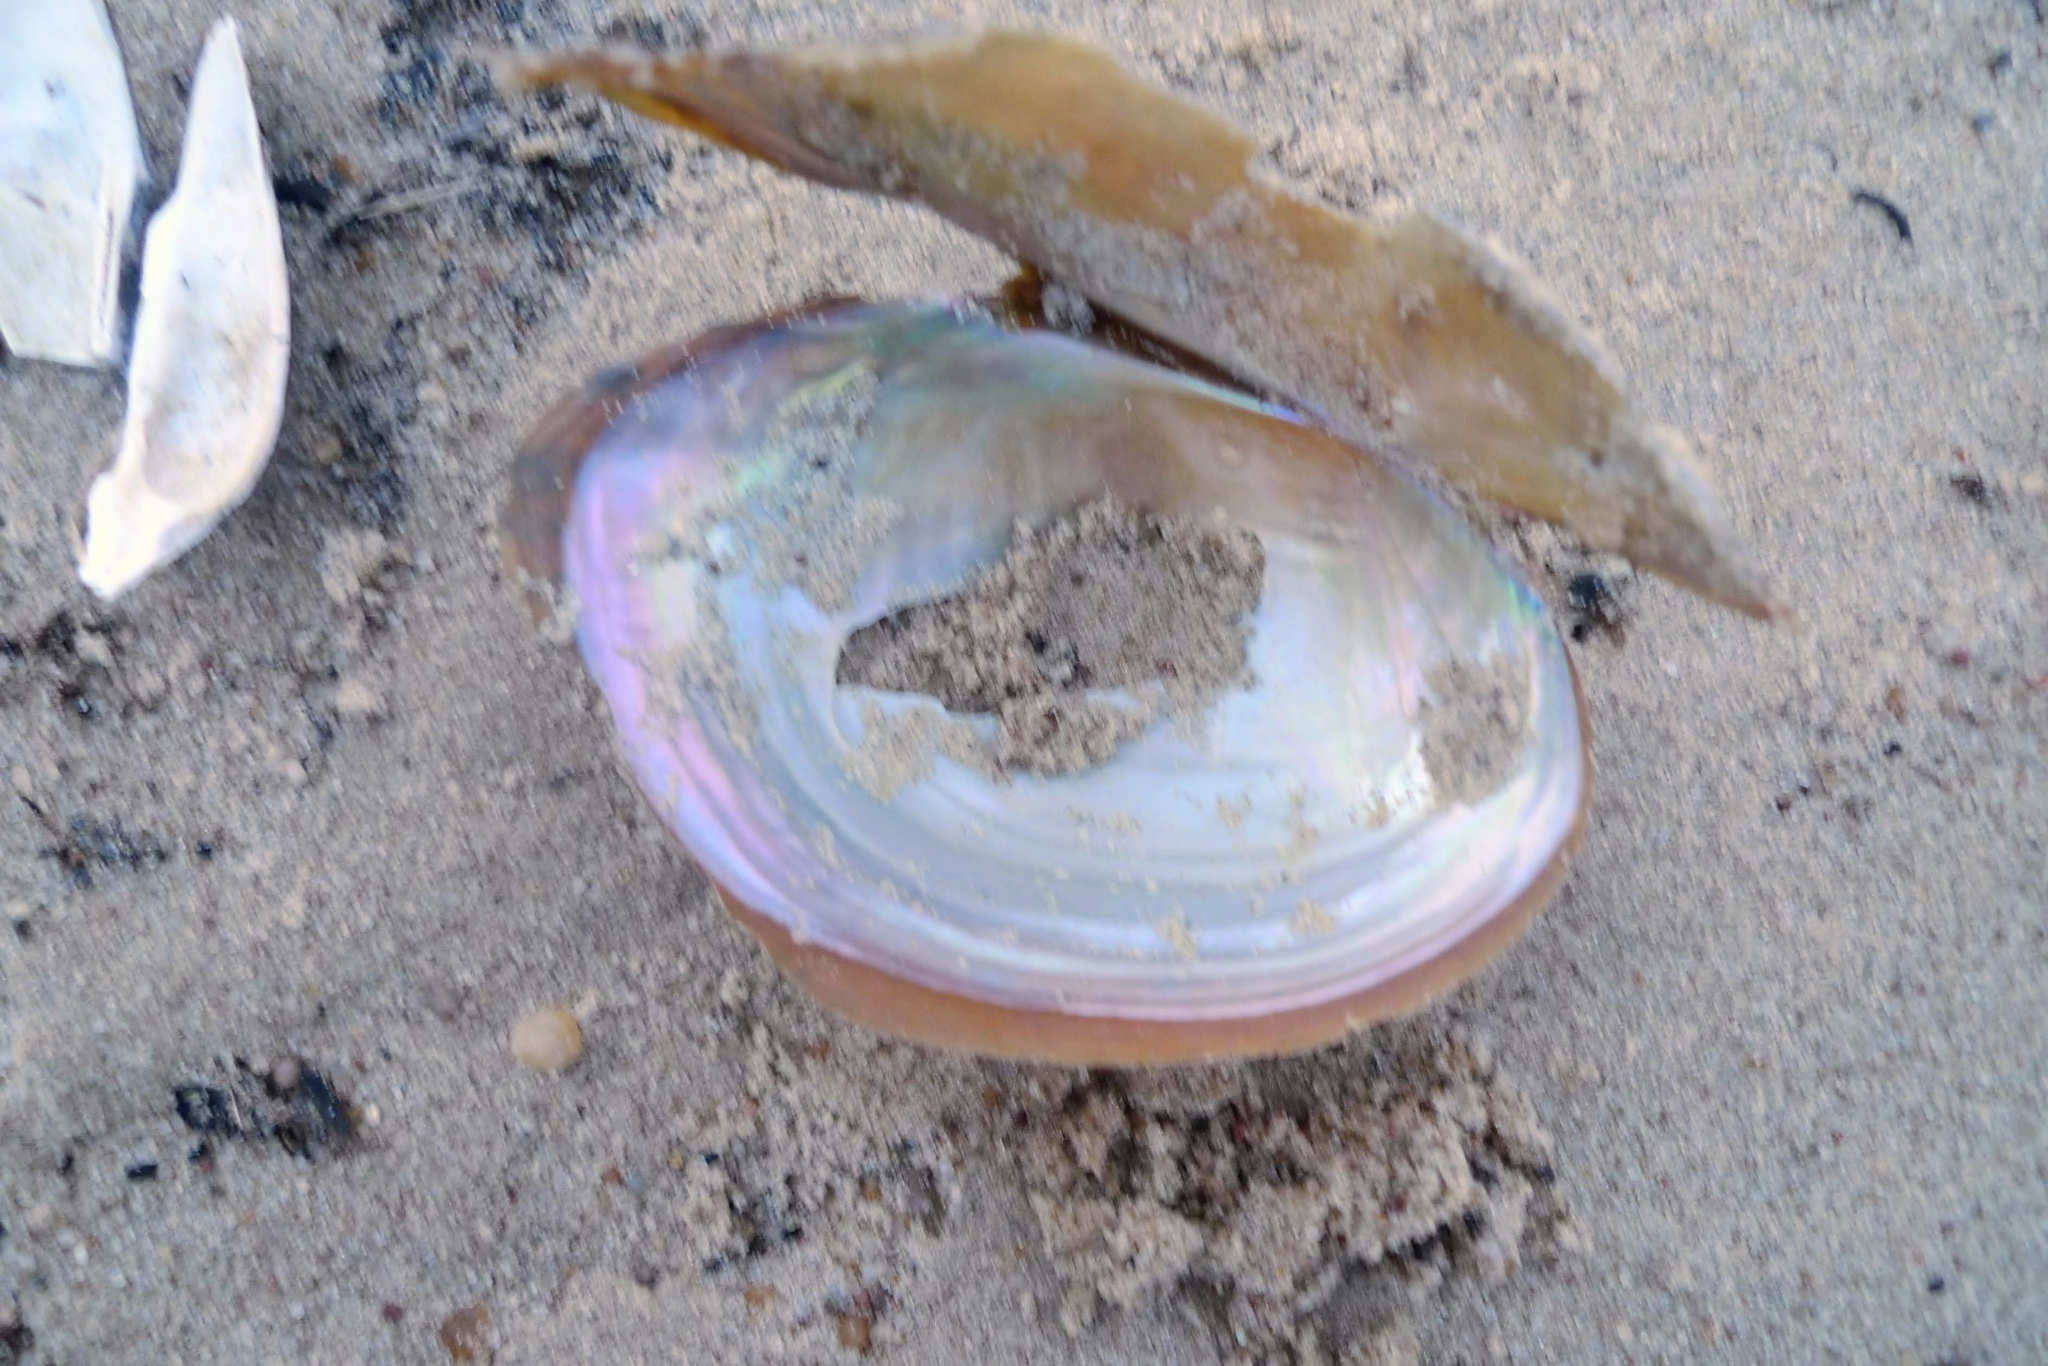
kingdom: Animalia
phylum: Mollusca
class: Bivalvia
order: Unionida
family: Unionidae
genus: Sinanodonta
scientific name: Sinanodonta woodiana
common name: Chinese pond mussel
